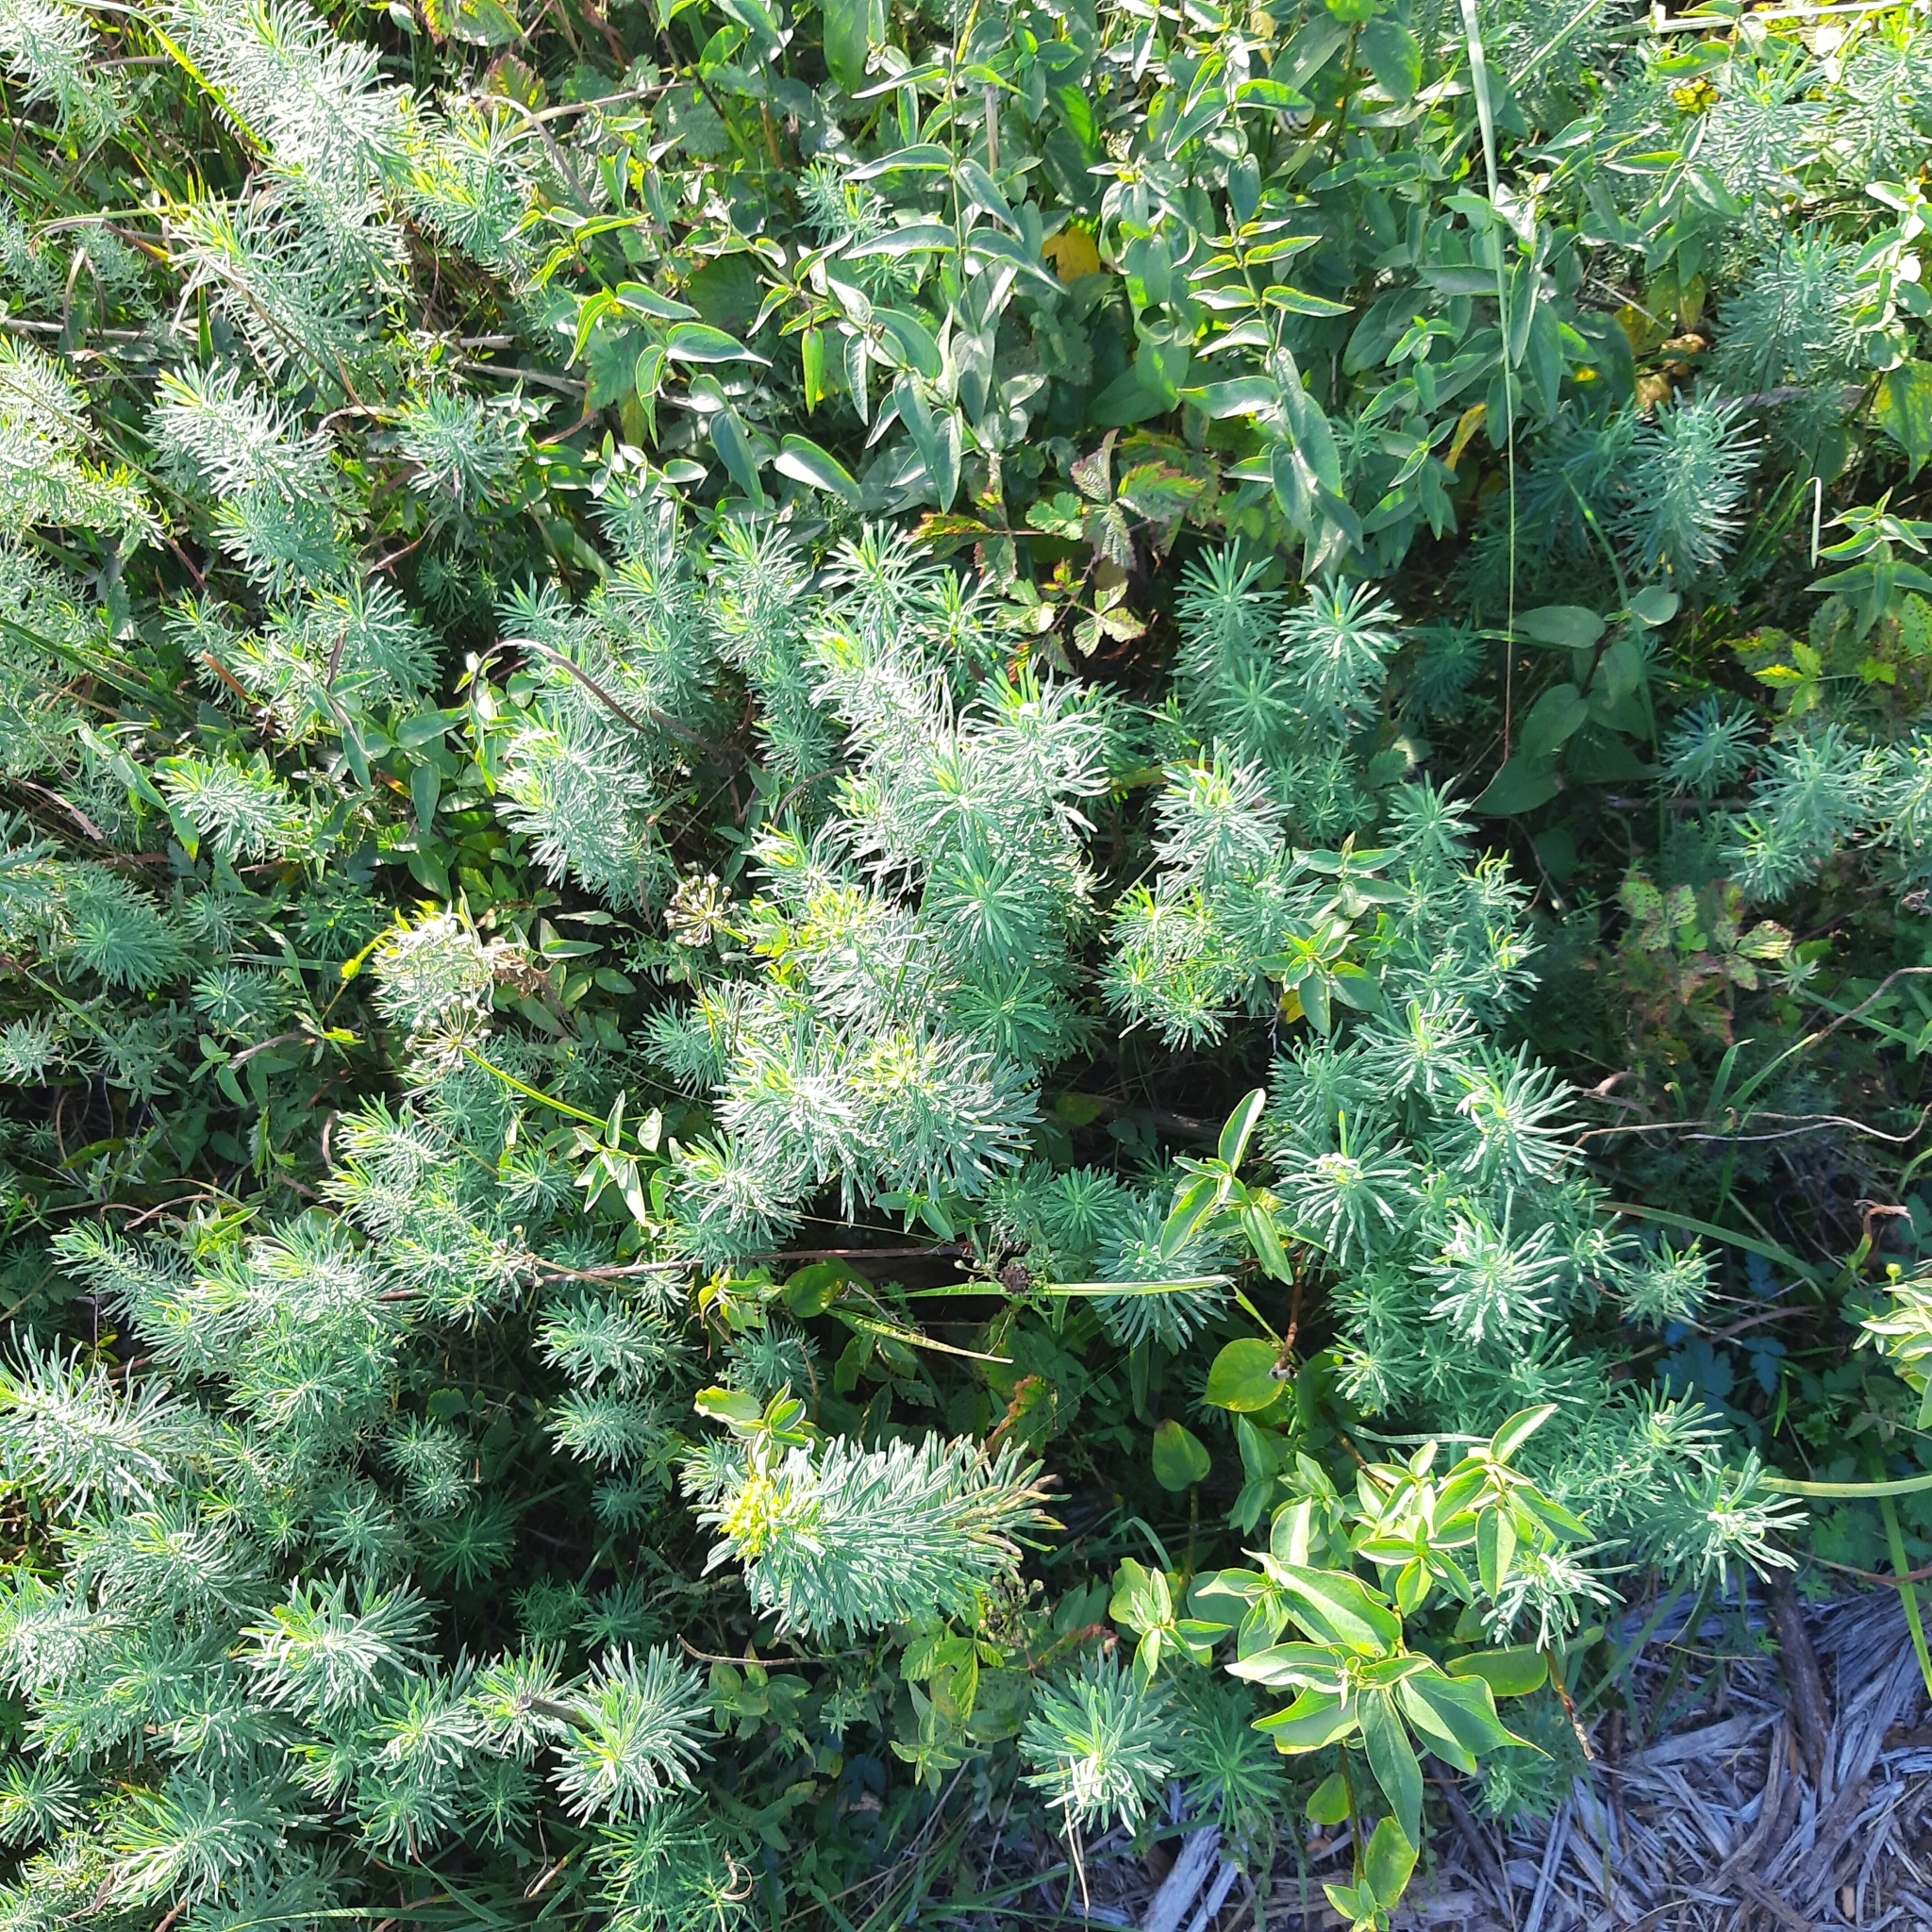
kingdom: Plantae
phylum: Tracheophyta
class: Magnoliopsida
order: Malpighiales
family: Euphorbiaceae
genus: Euphorbia
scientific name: Euphorbia cyparissias
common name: Cypress spurge
